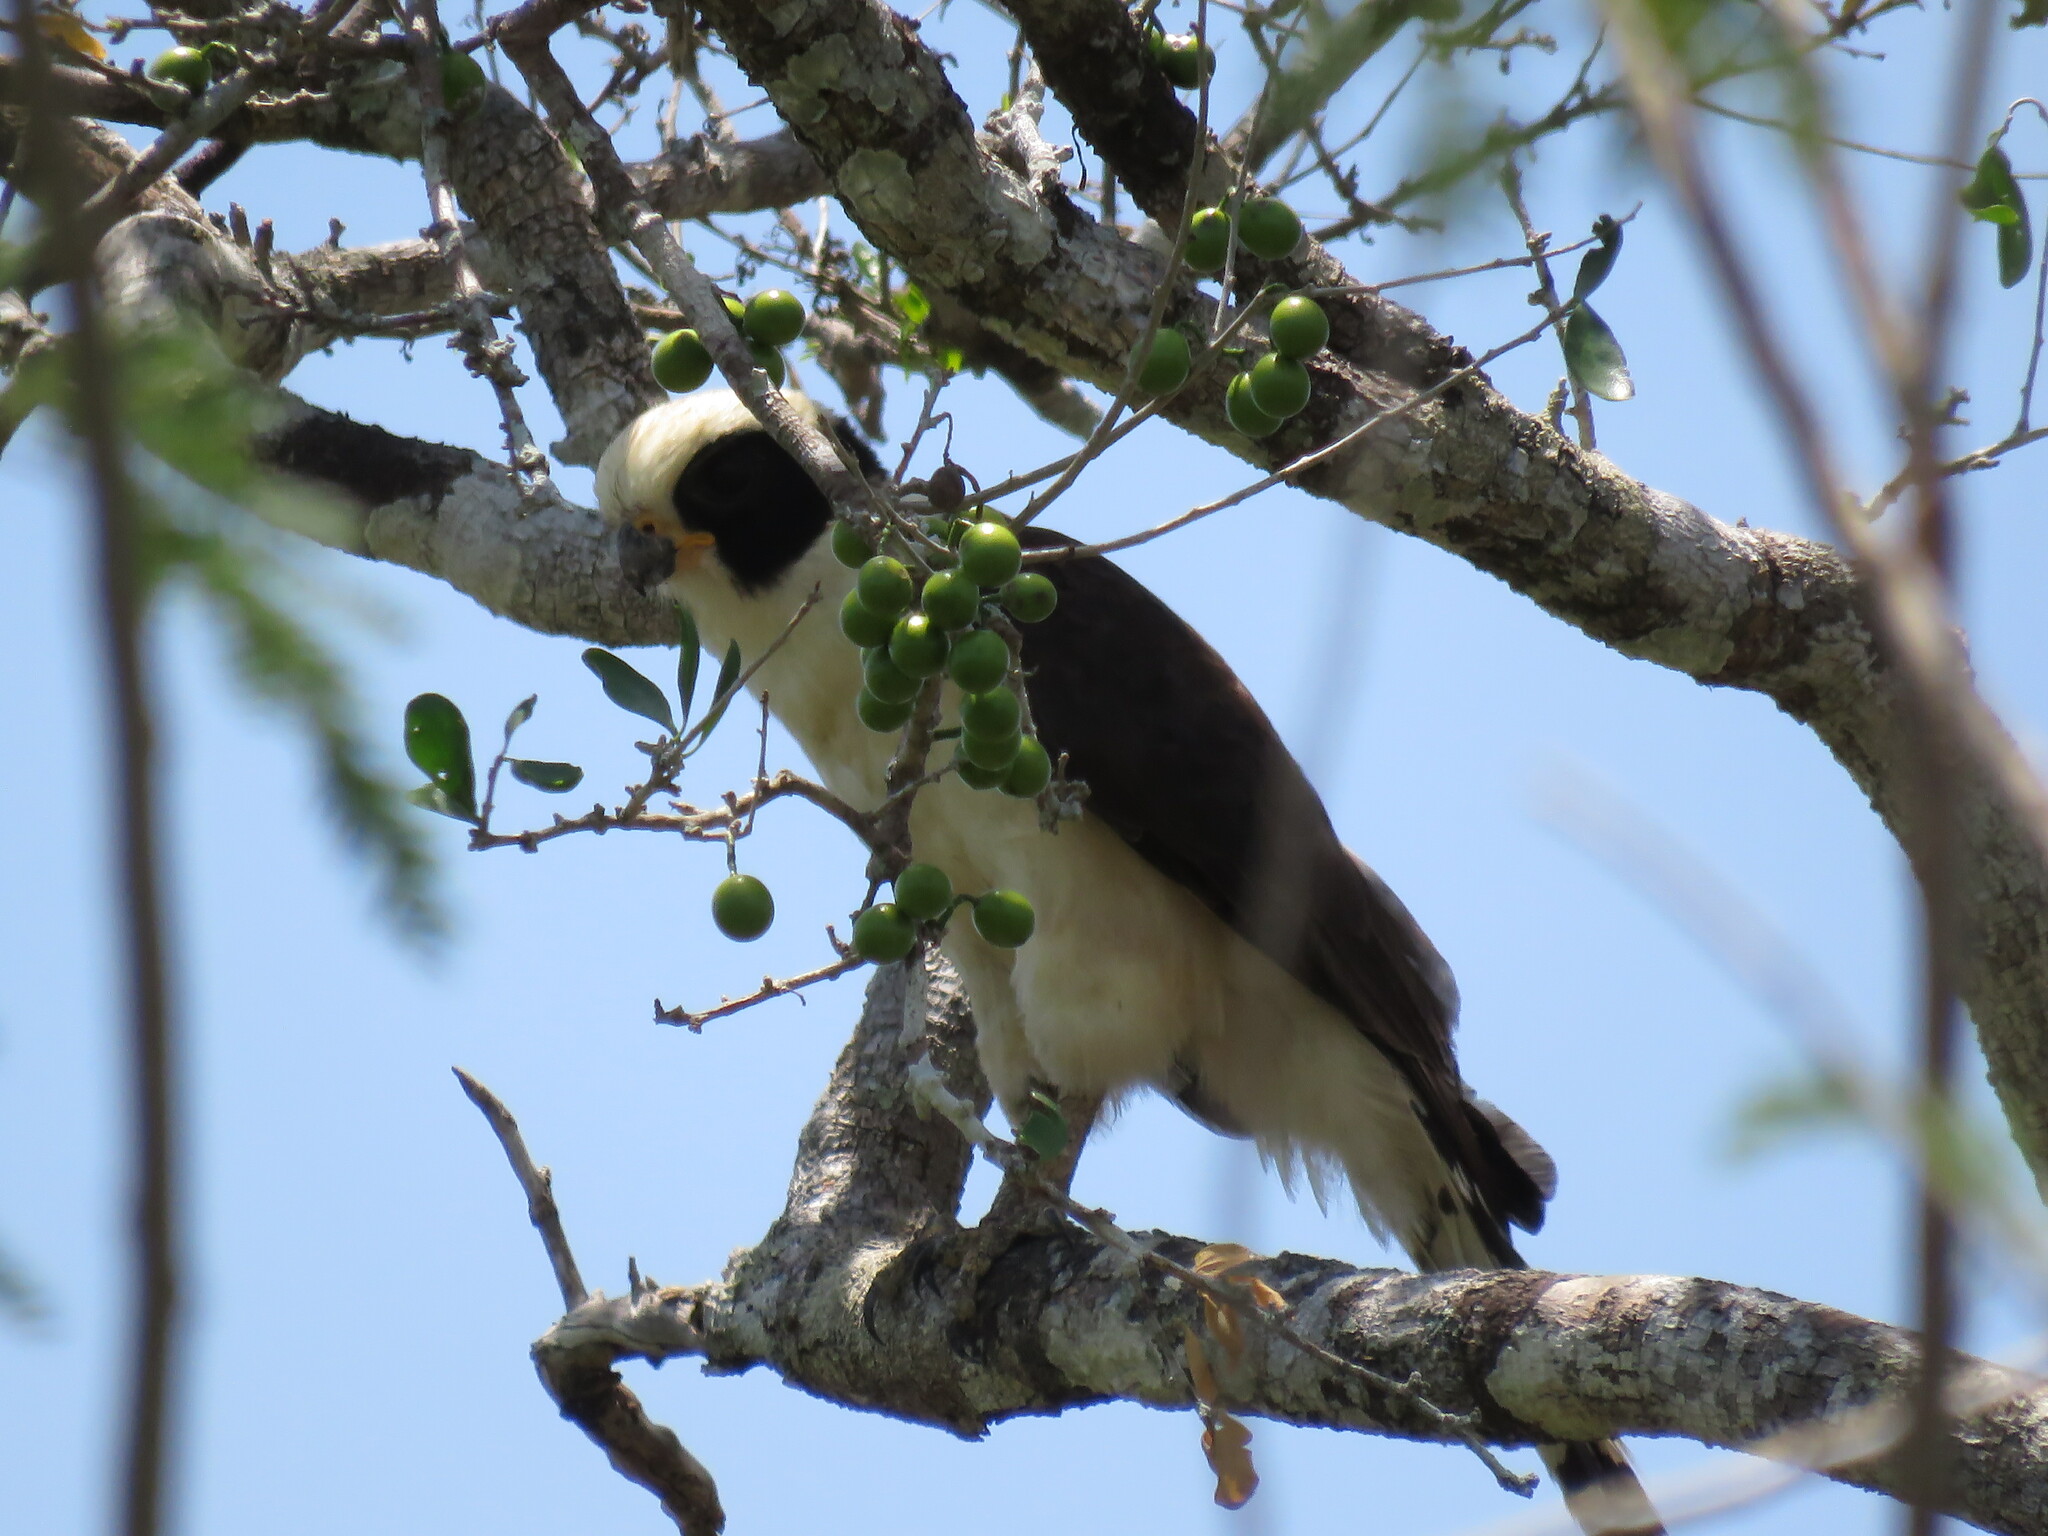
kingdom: Animalia
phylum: Chordata
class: Aves
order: Falconiformes
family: Falconidae
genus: Herpetotheres
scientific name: Herpetotheres cachinnans
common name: Laughing falcon
